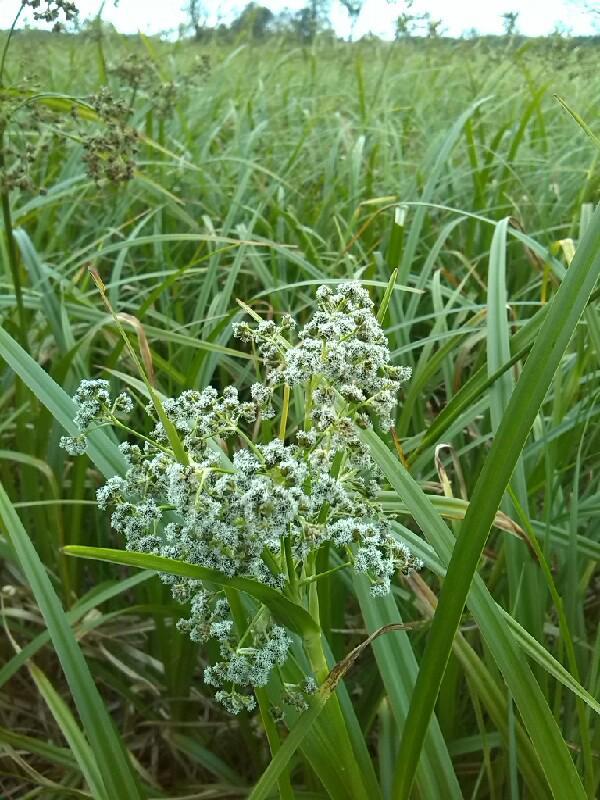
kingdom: Plantae
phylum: Tracheophyta
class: Liliopsida
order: Poales
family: Cyperaceae
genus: Scirpus
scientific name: Scirpus sylvaticus
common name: Wood club-rush
